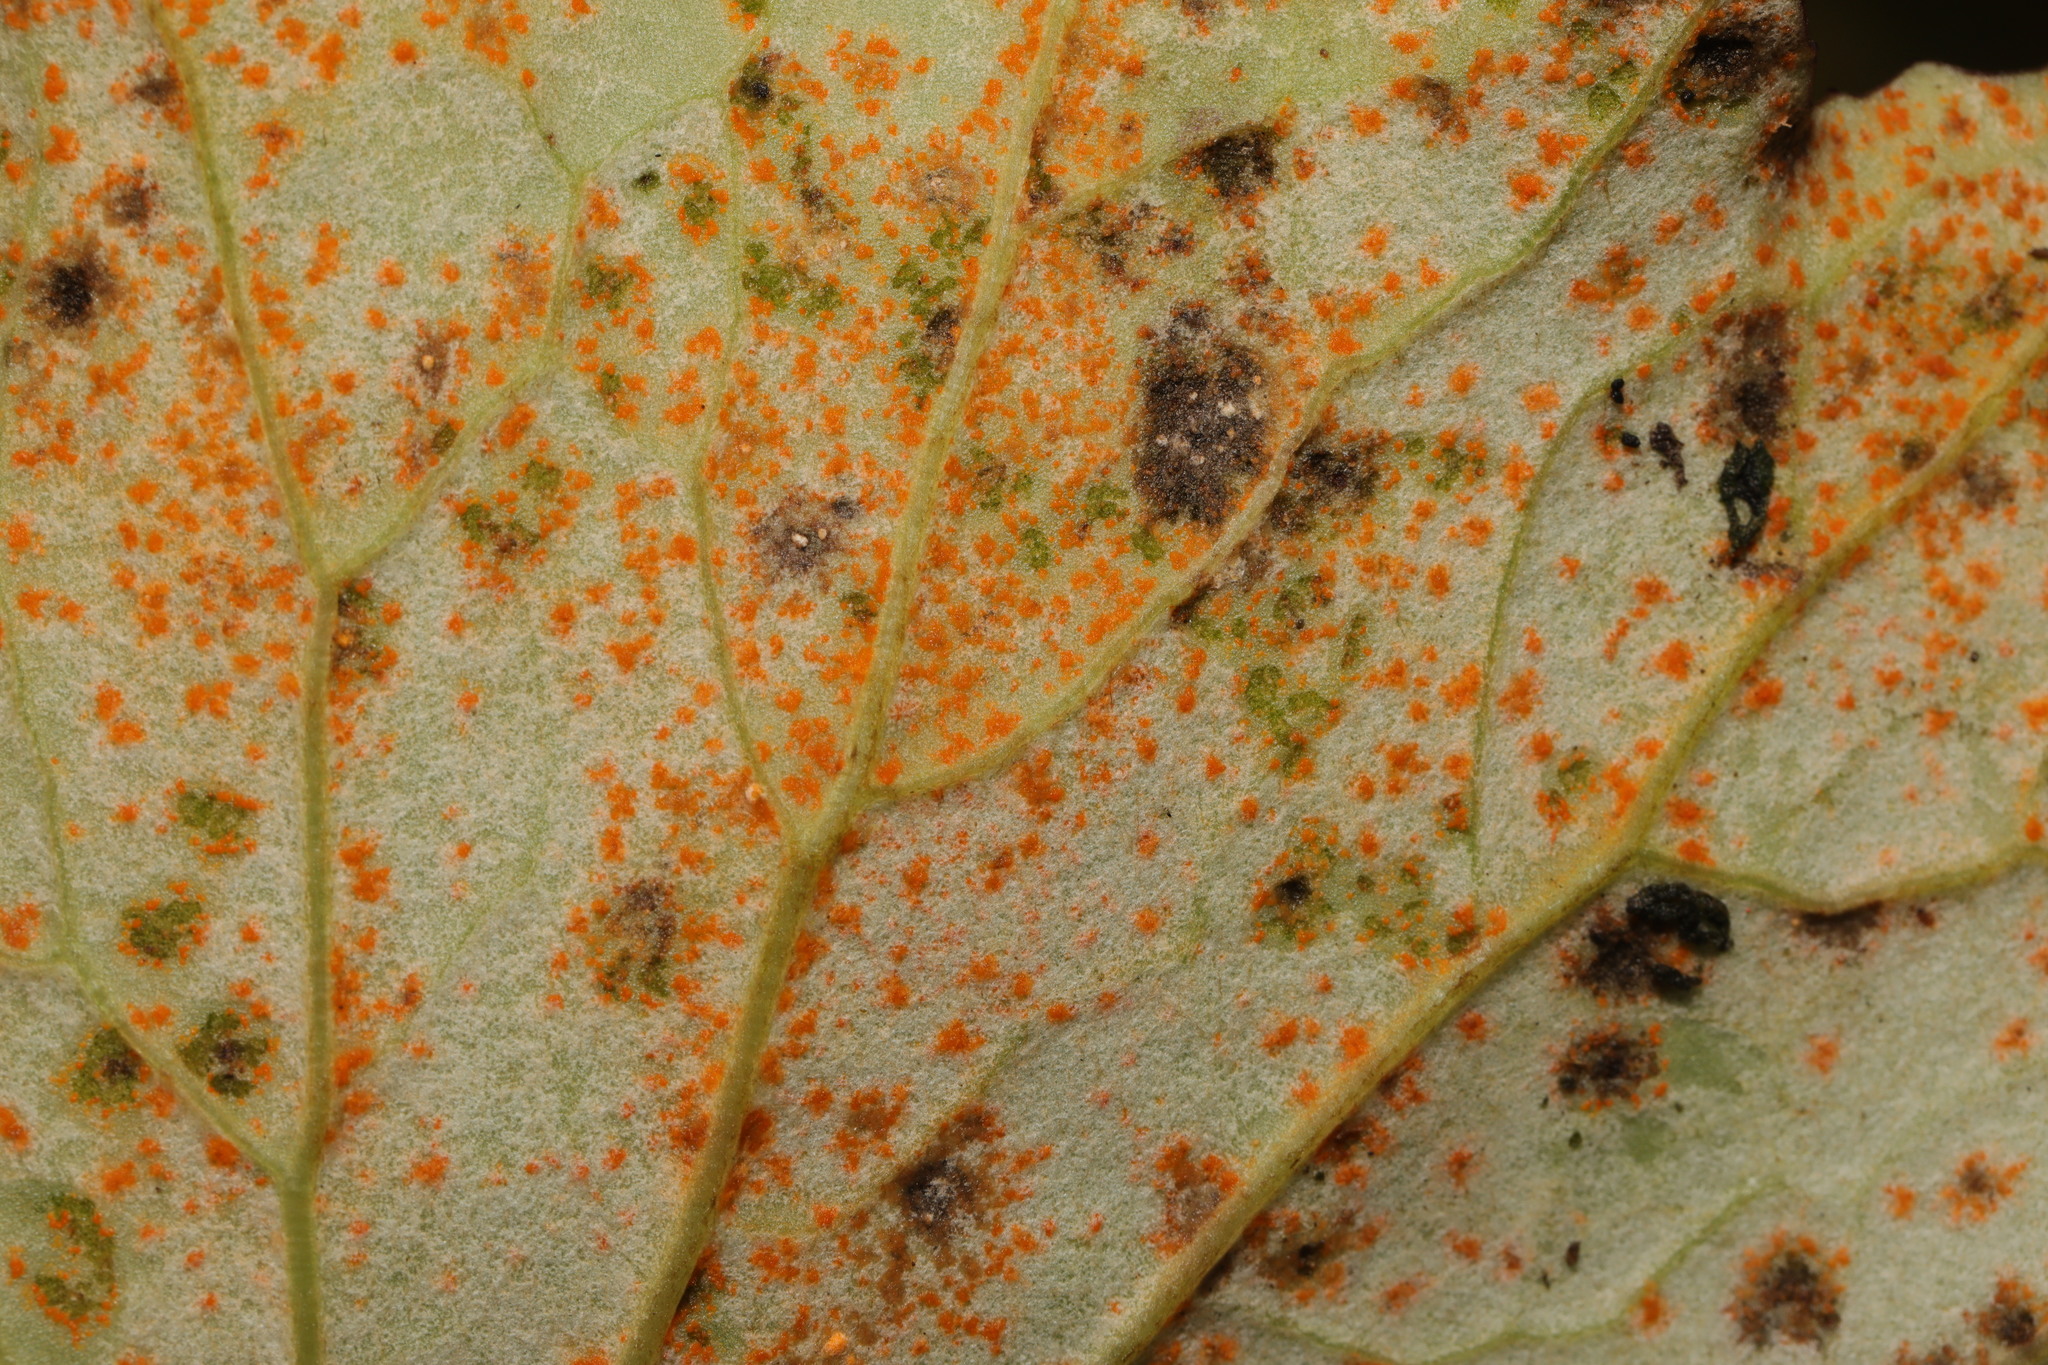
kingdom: Fungi
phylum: Basidiomycota
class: Pucciniomycetes
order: Pucciniales
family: Coleosporiaceae
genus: Coleosporium
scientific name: Coleosporium tussilaginis
